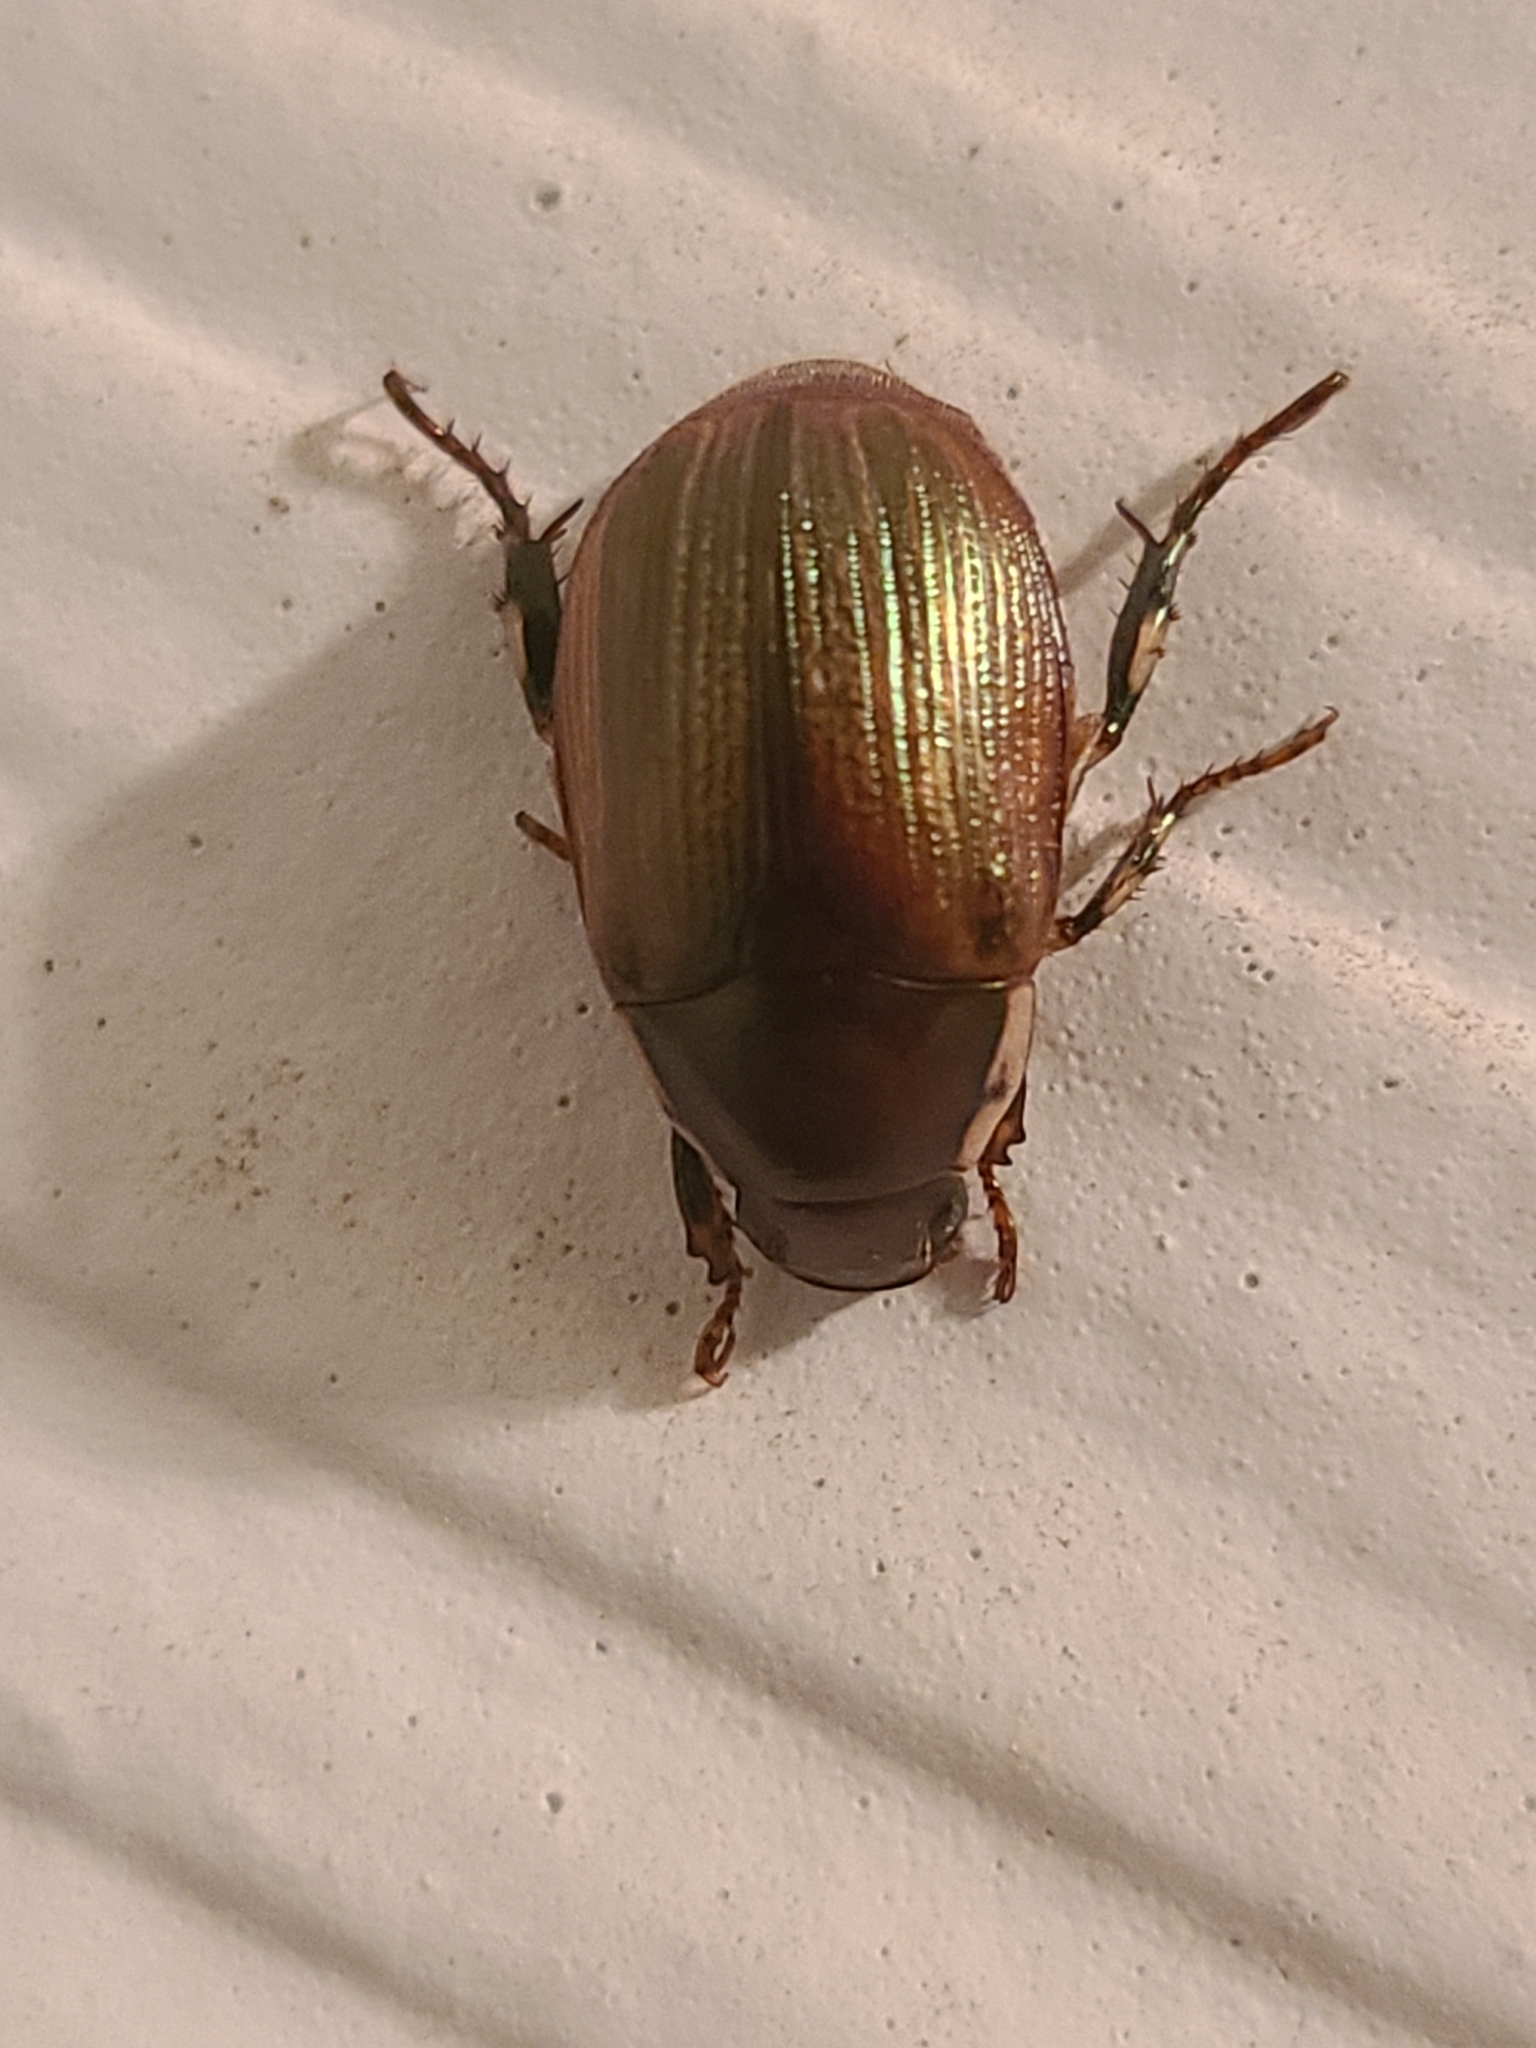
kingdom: Animalia
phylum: Arthropoda
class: Insecta
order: Coleoptera
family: Scarabaeidae
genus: Callistethus
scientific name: Callistethus marginatus
